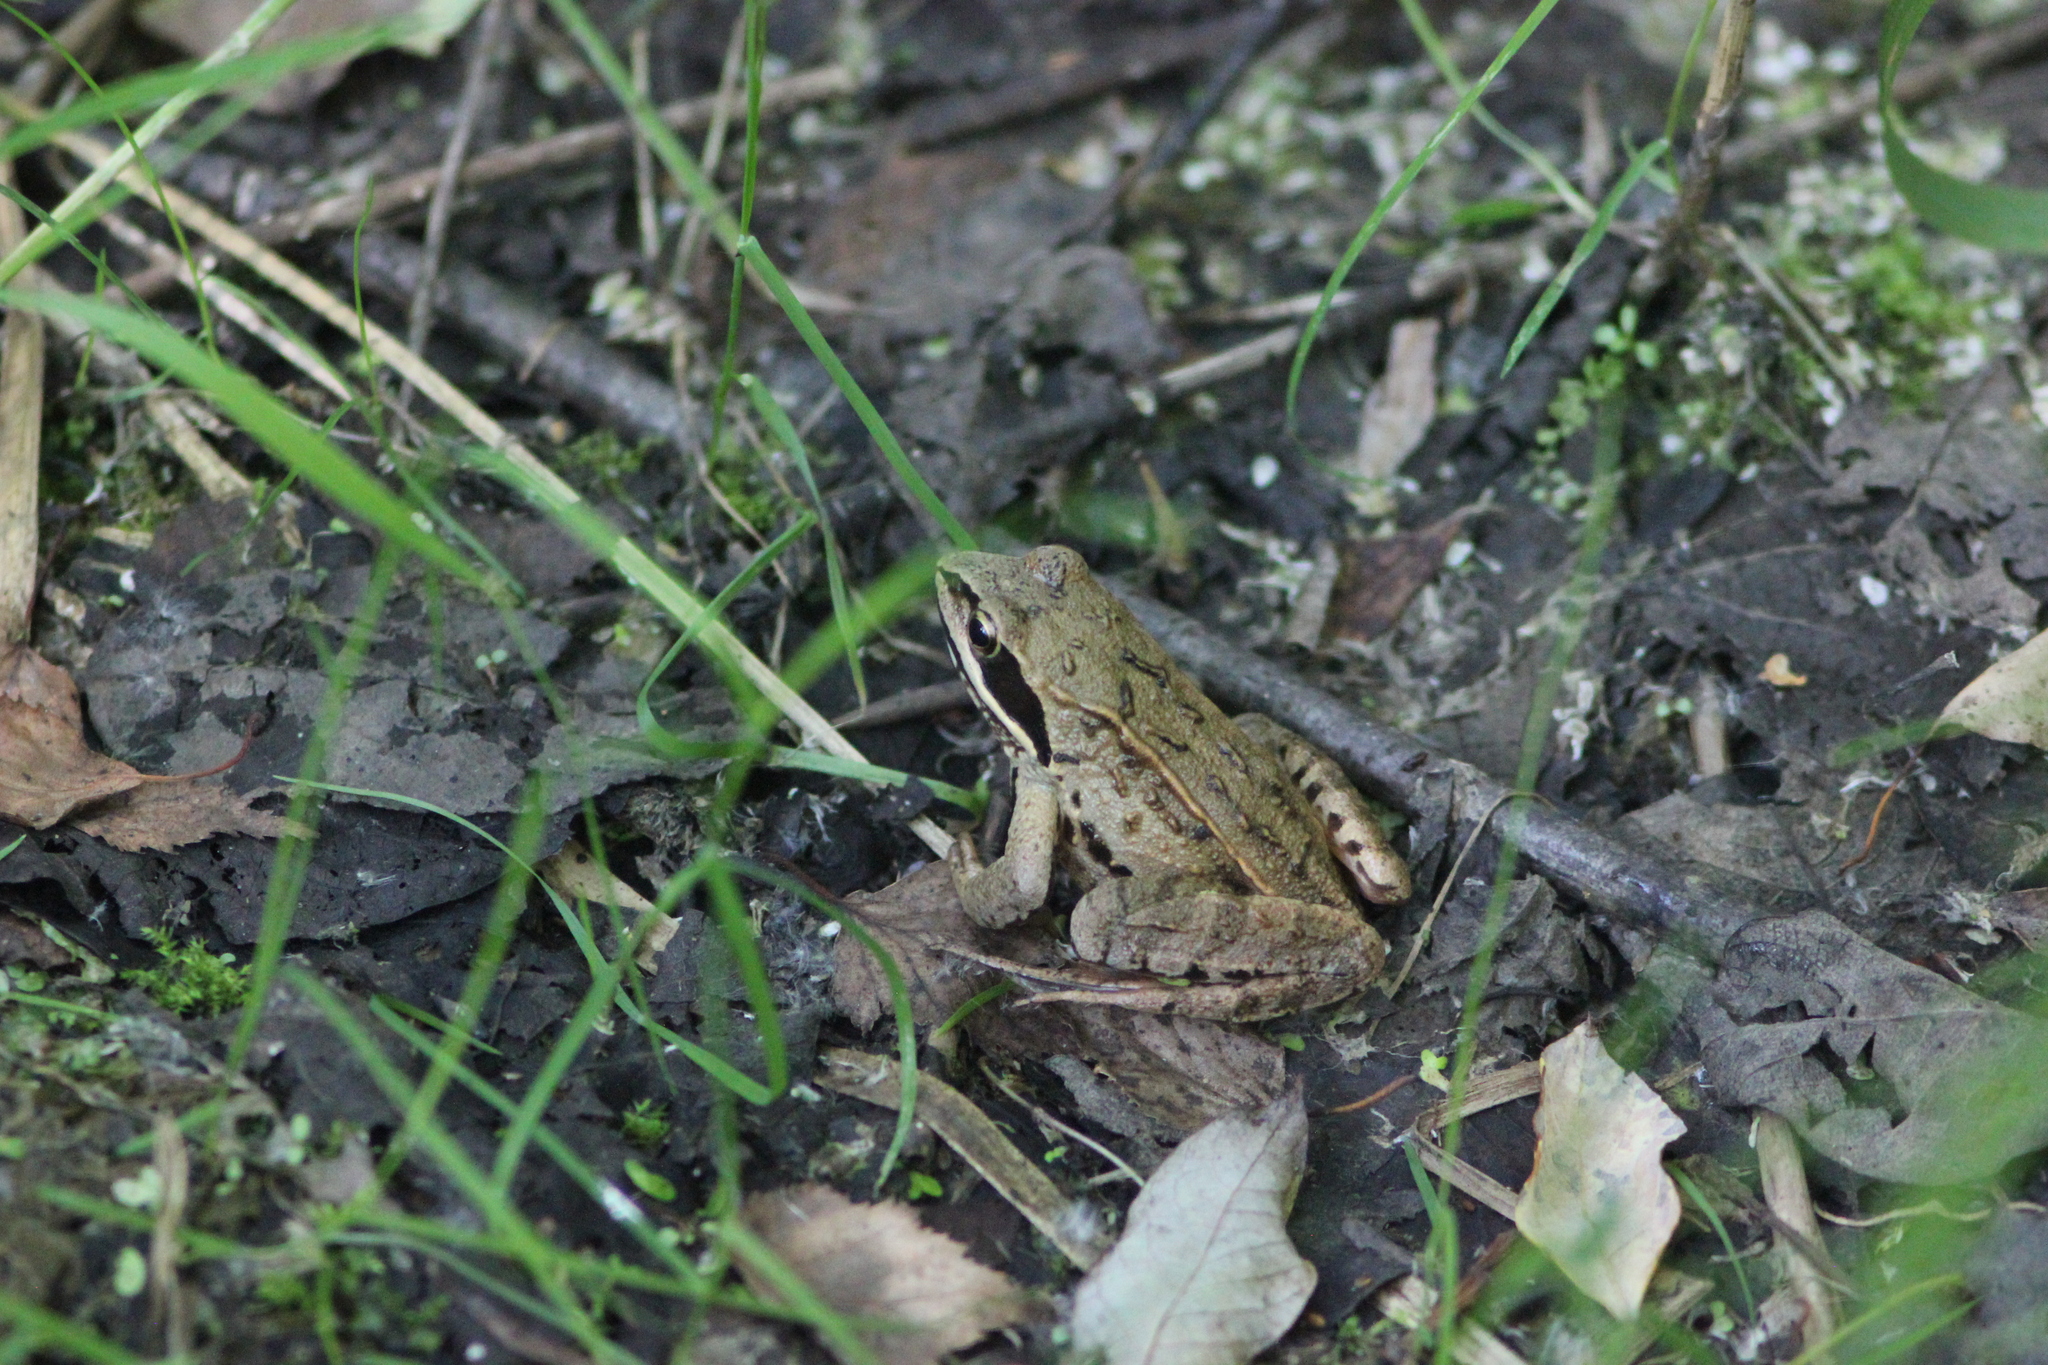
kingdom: Animalia
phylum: Chordata
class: Amphibia
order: Anura
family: Ranidae
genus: Rana
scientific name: Rana arvalis
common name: Moor frog
